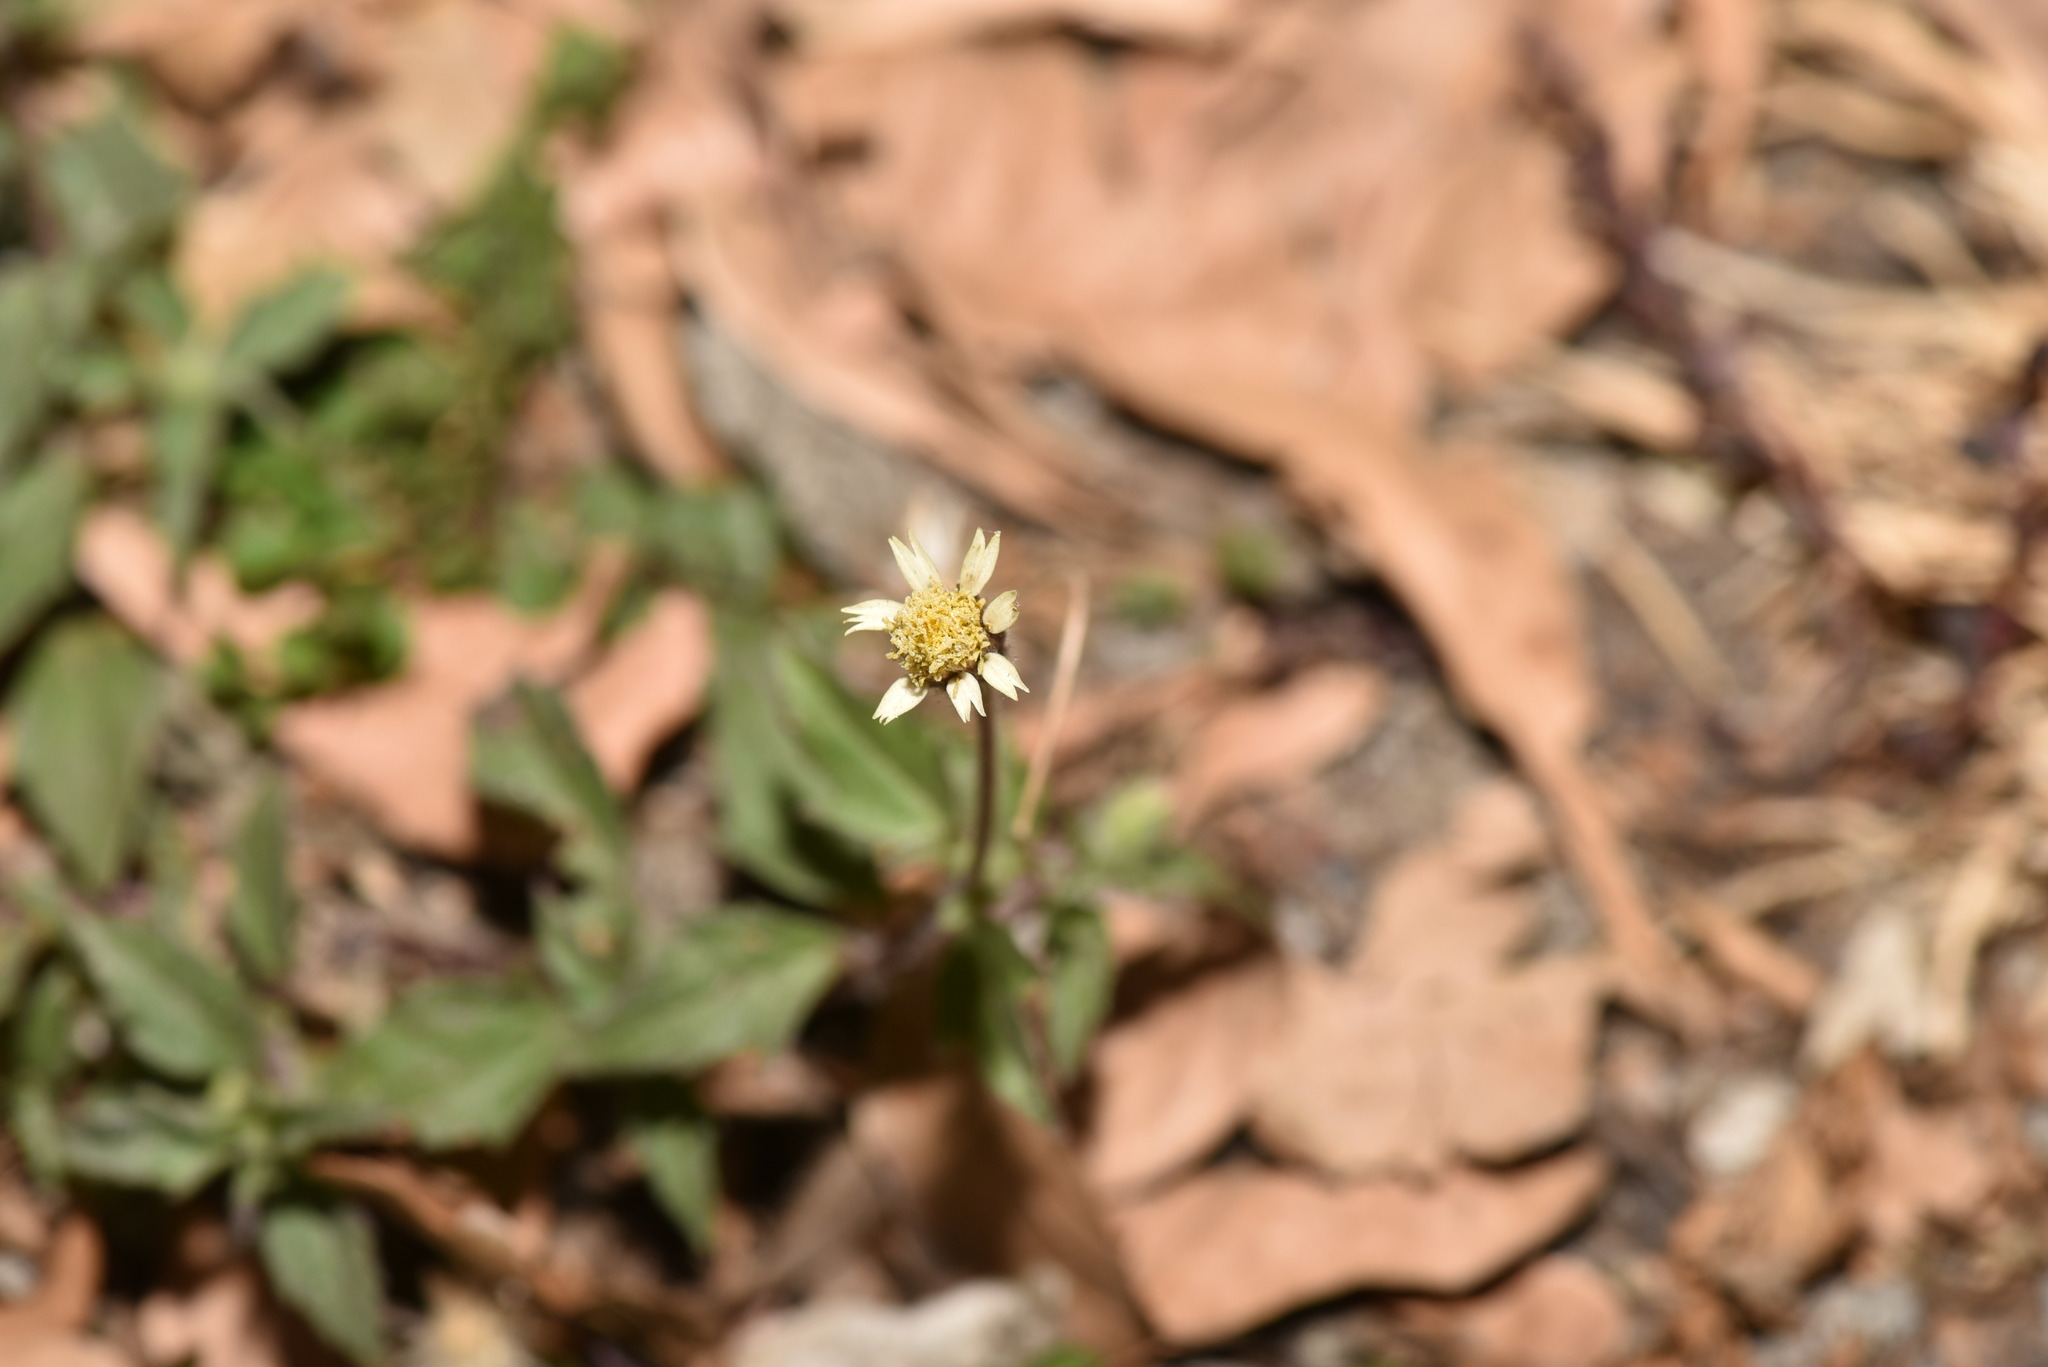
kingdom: Plantae
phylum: Tracheophyta
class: Magnoliopsida
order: Asterales
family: Asteraceae
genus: Tridax
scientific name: Tridax procumbens
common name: Coatbuttons
